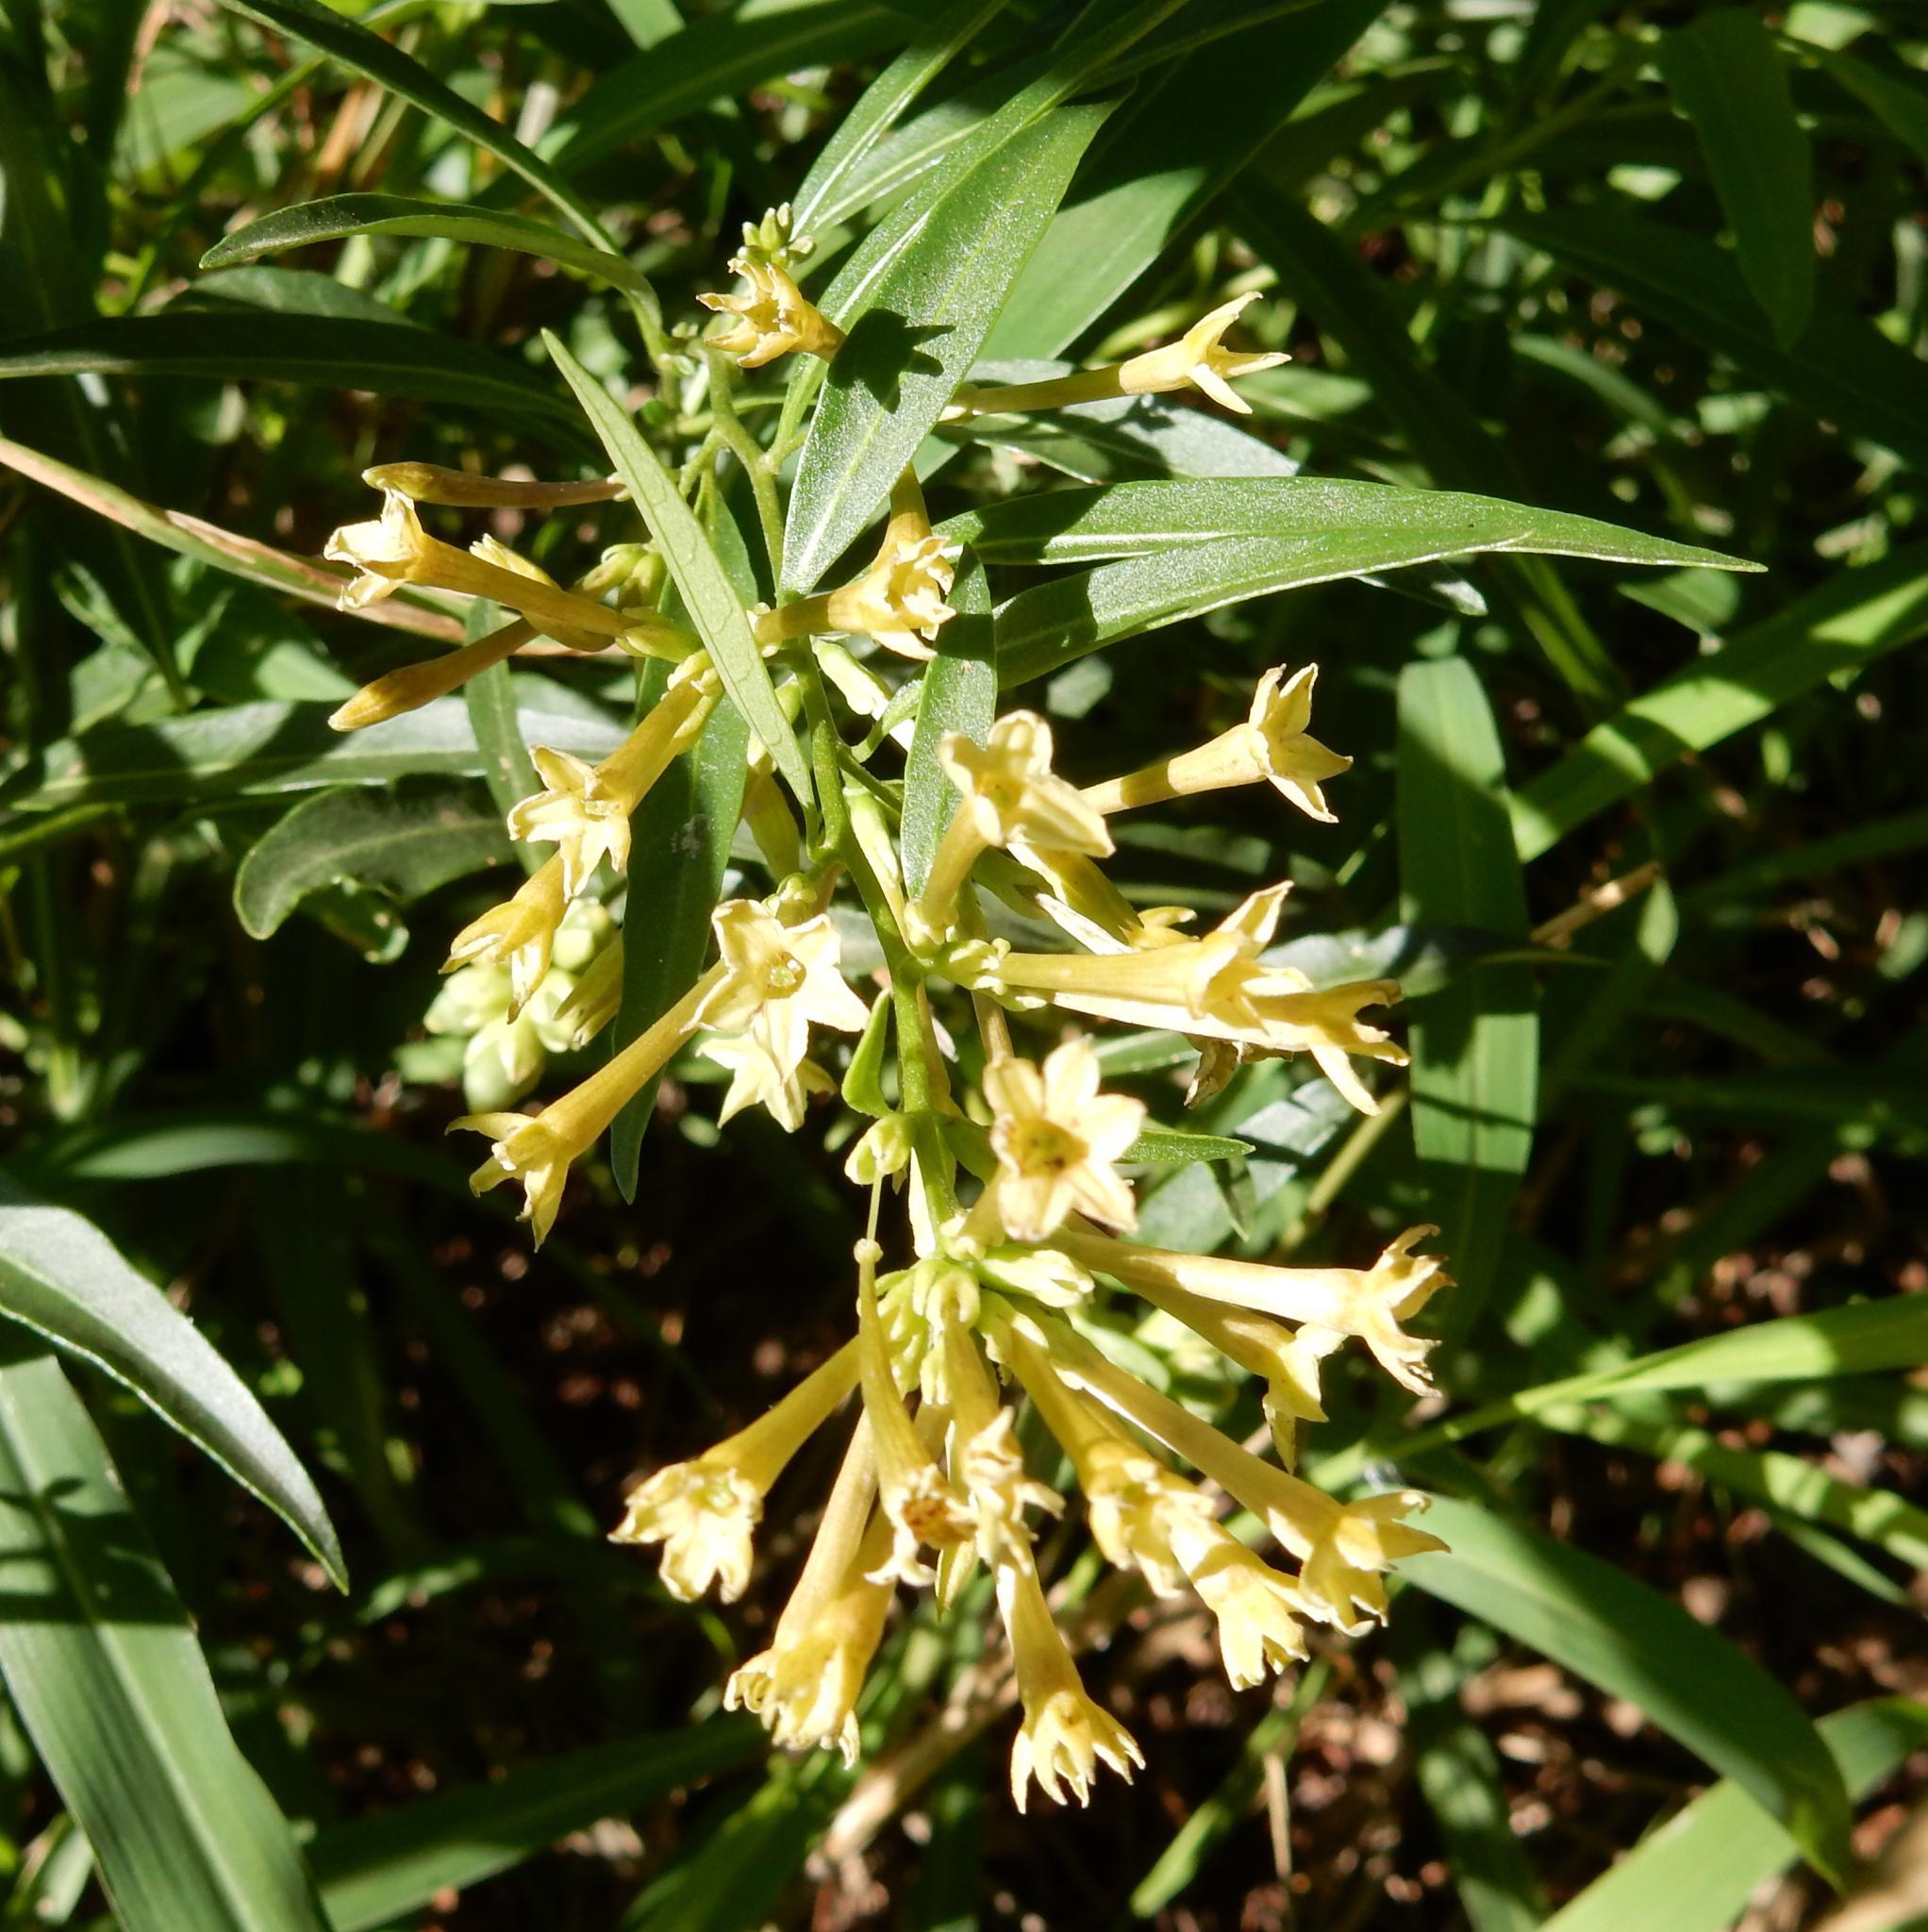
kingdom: Plantae
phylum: Tracheophyta
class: Magnoliopsida
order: Solanales
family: Solanaceae
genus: Cestrum
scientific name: Cestrum parqui
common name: Chilean cestrum
